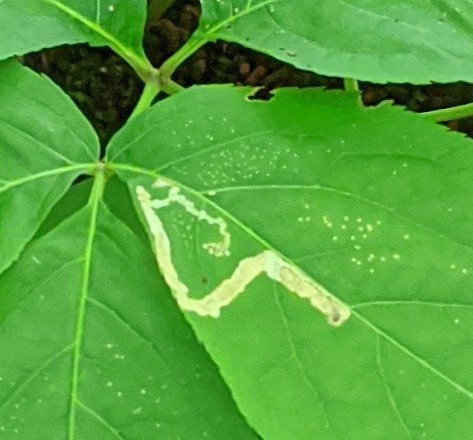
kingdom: Animalia
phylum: Arthropoda
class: Insecta
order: Diptera
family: Agromyzidae
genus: Phytomyza
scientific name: Phytomyza aralivora
